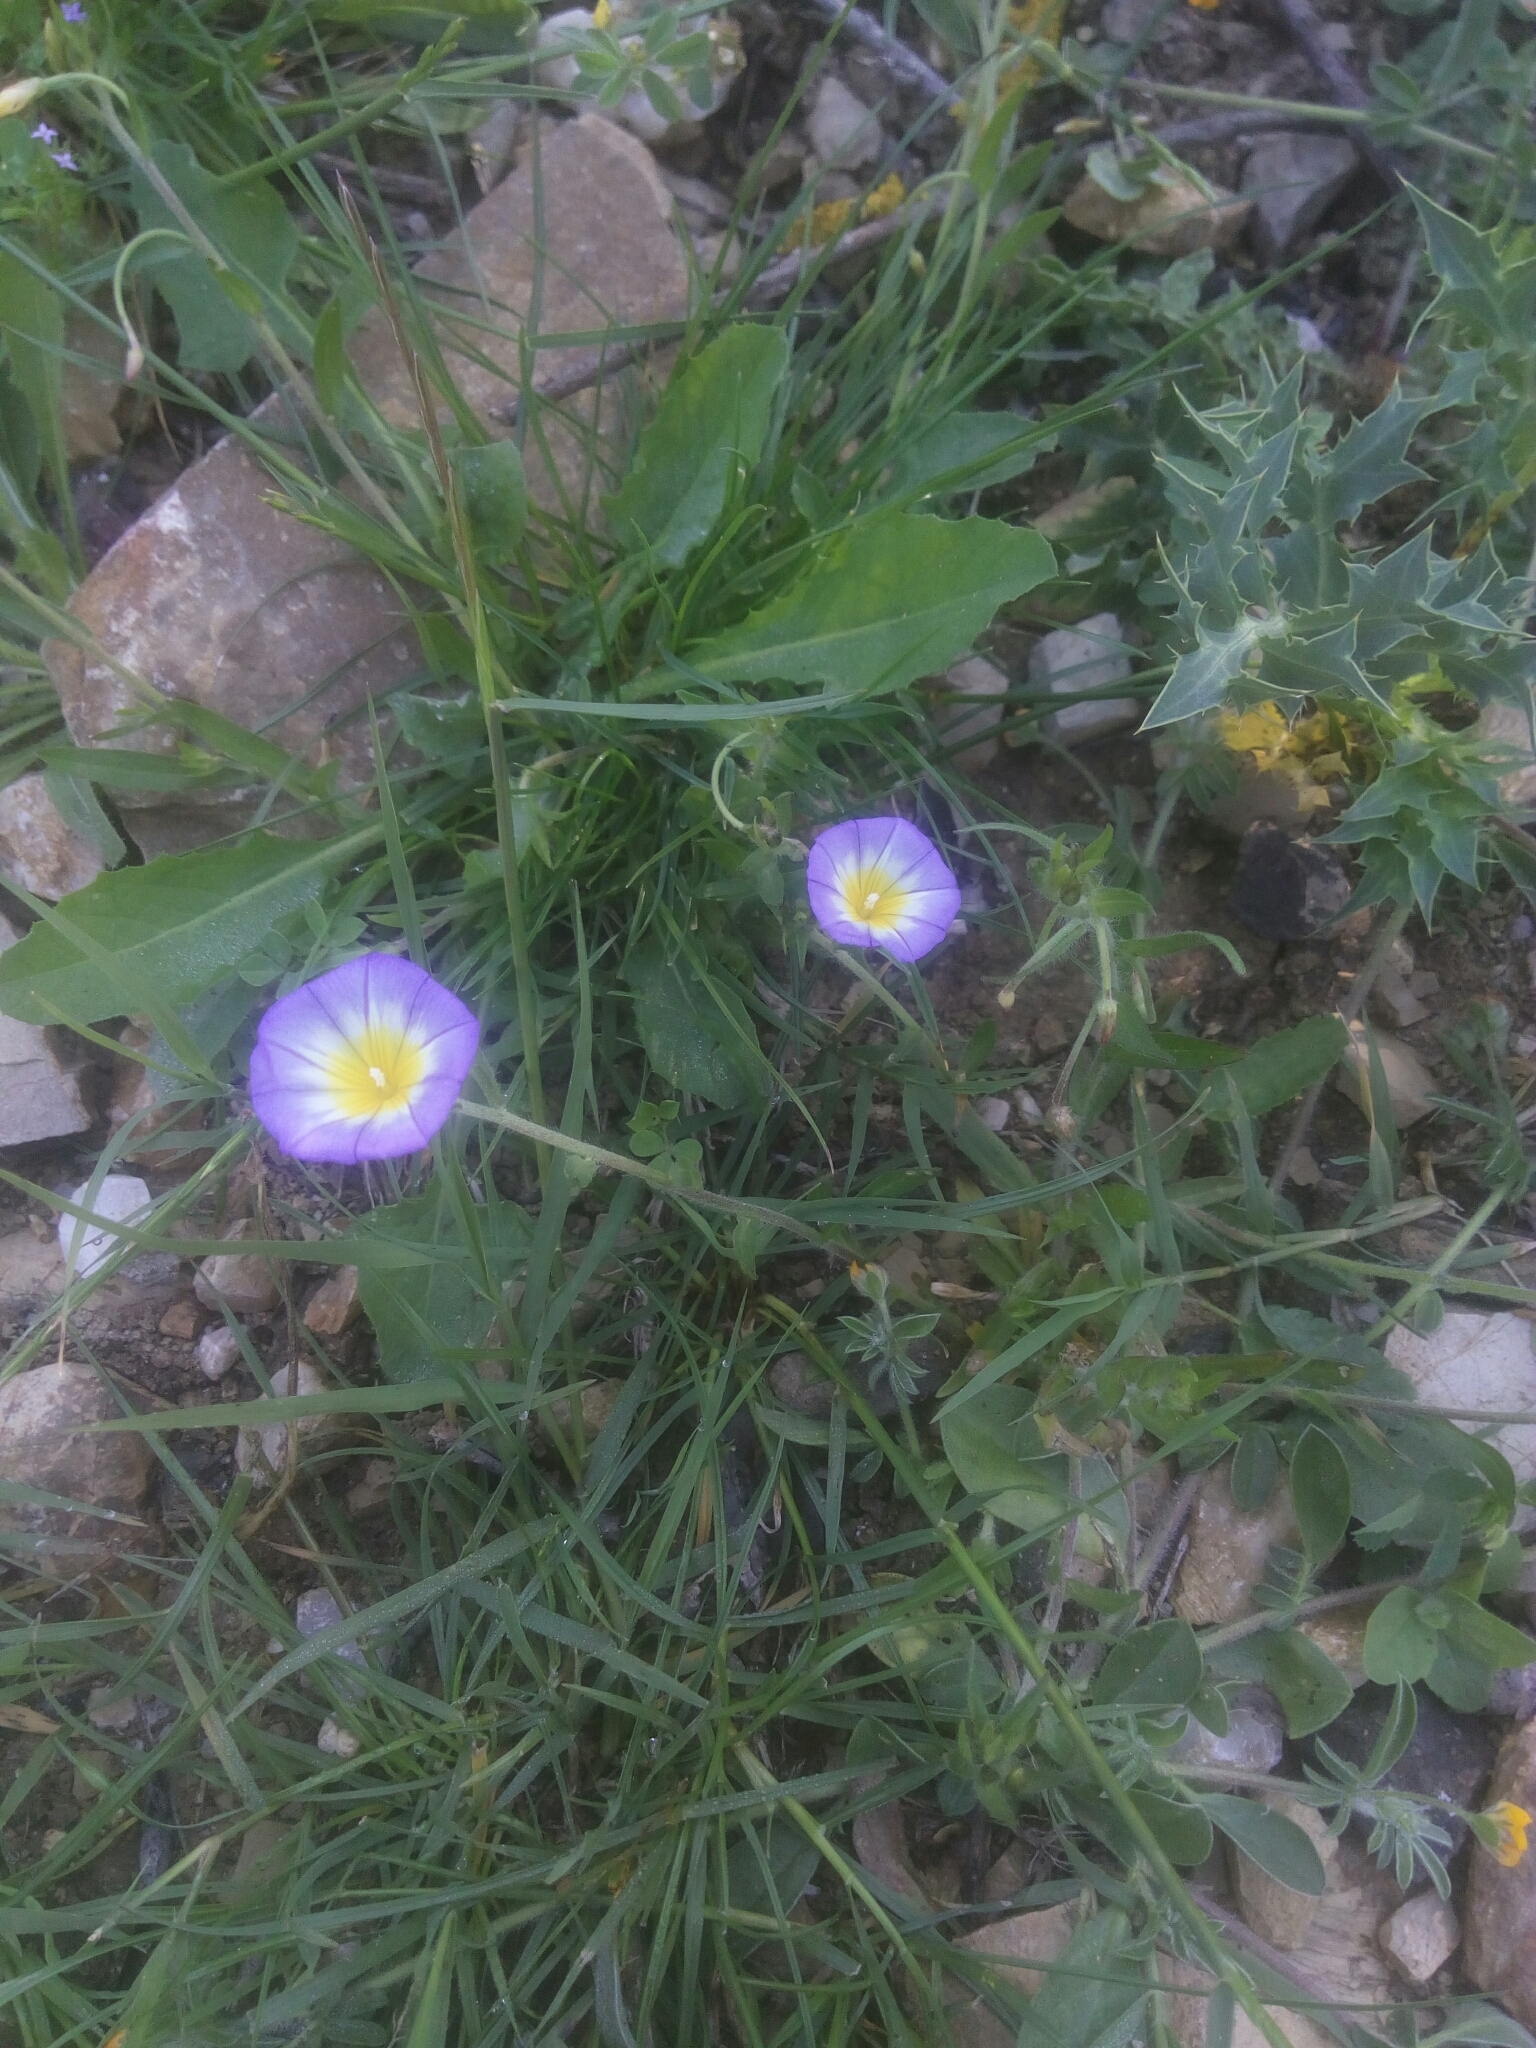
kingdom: Plantae
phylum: Tracheophyta
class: Magnoliopsida
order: Solanales
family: Convolvulaceae
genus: Convolvulus
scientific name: Convolvulus tricolor
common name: Dwarf morning-glory
